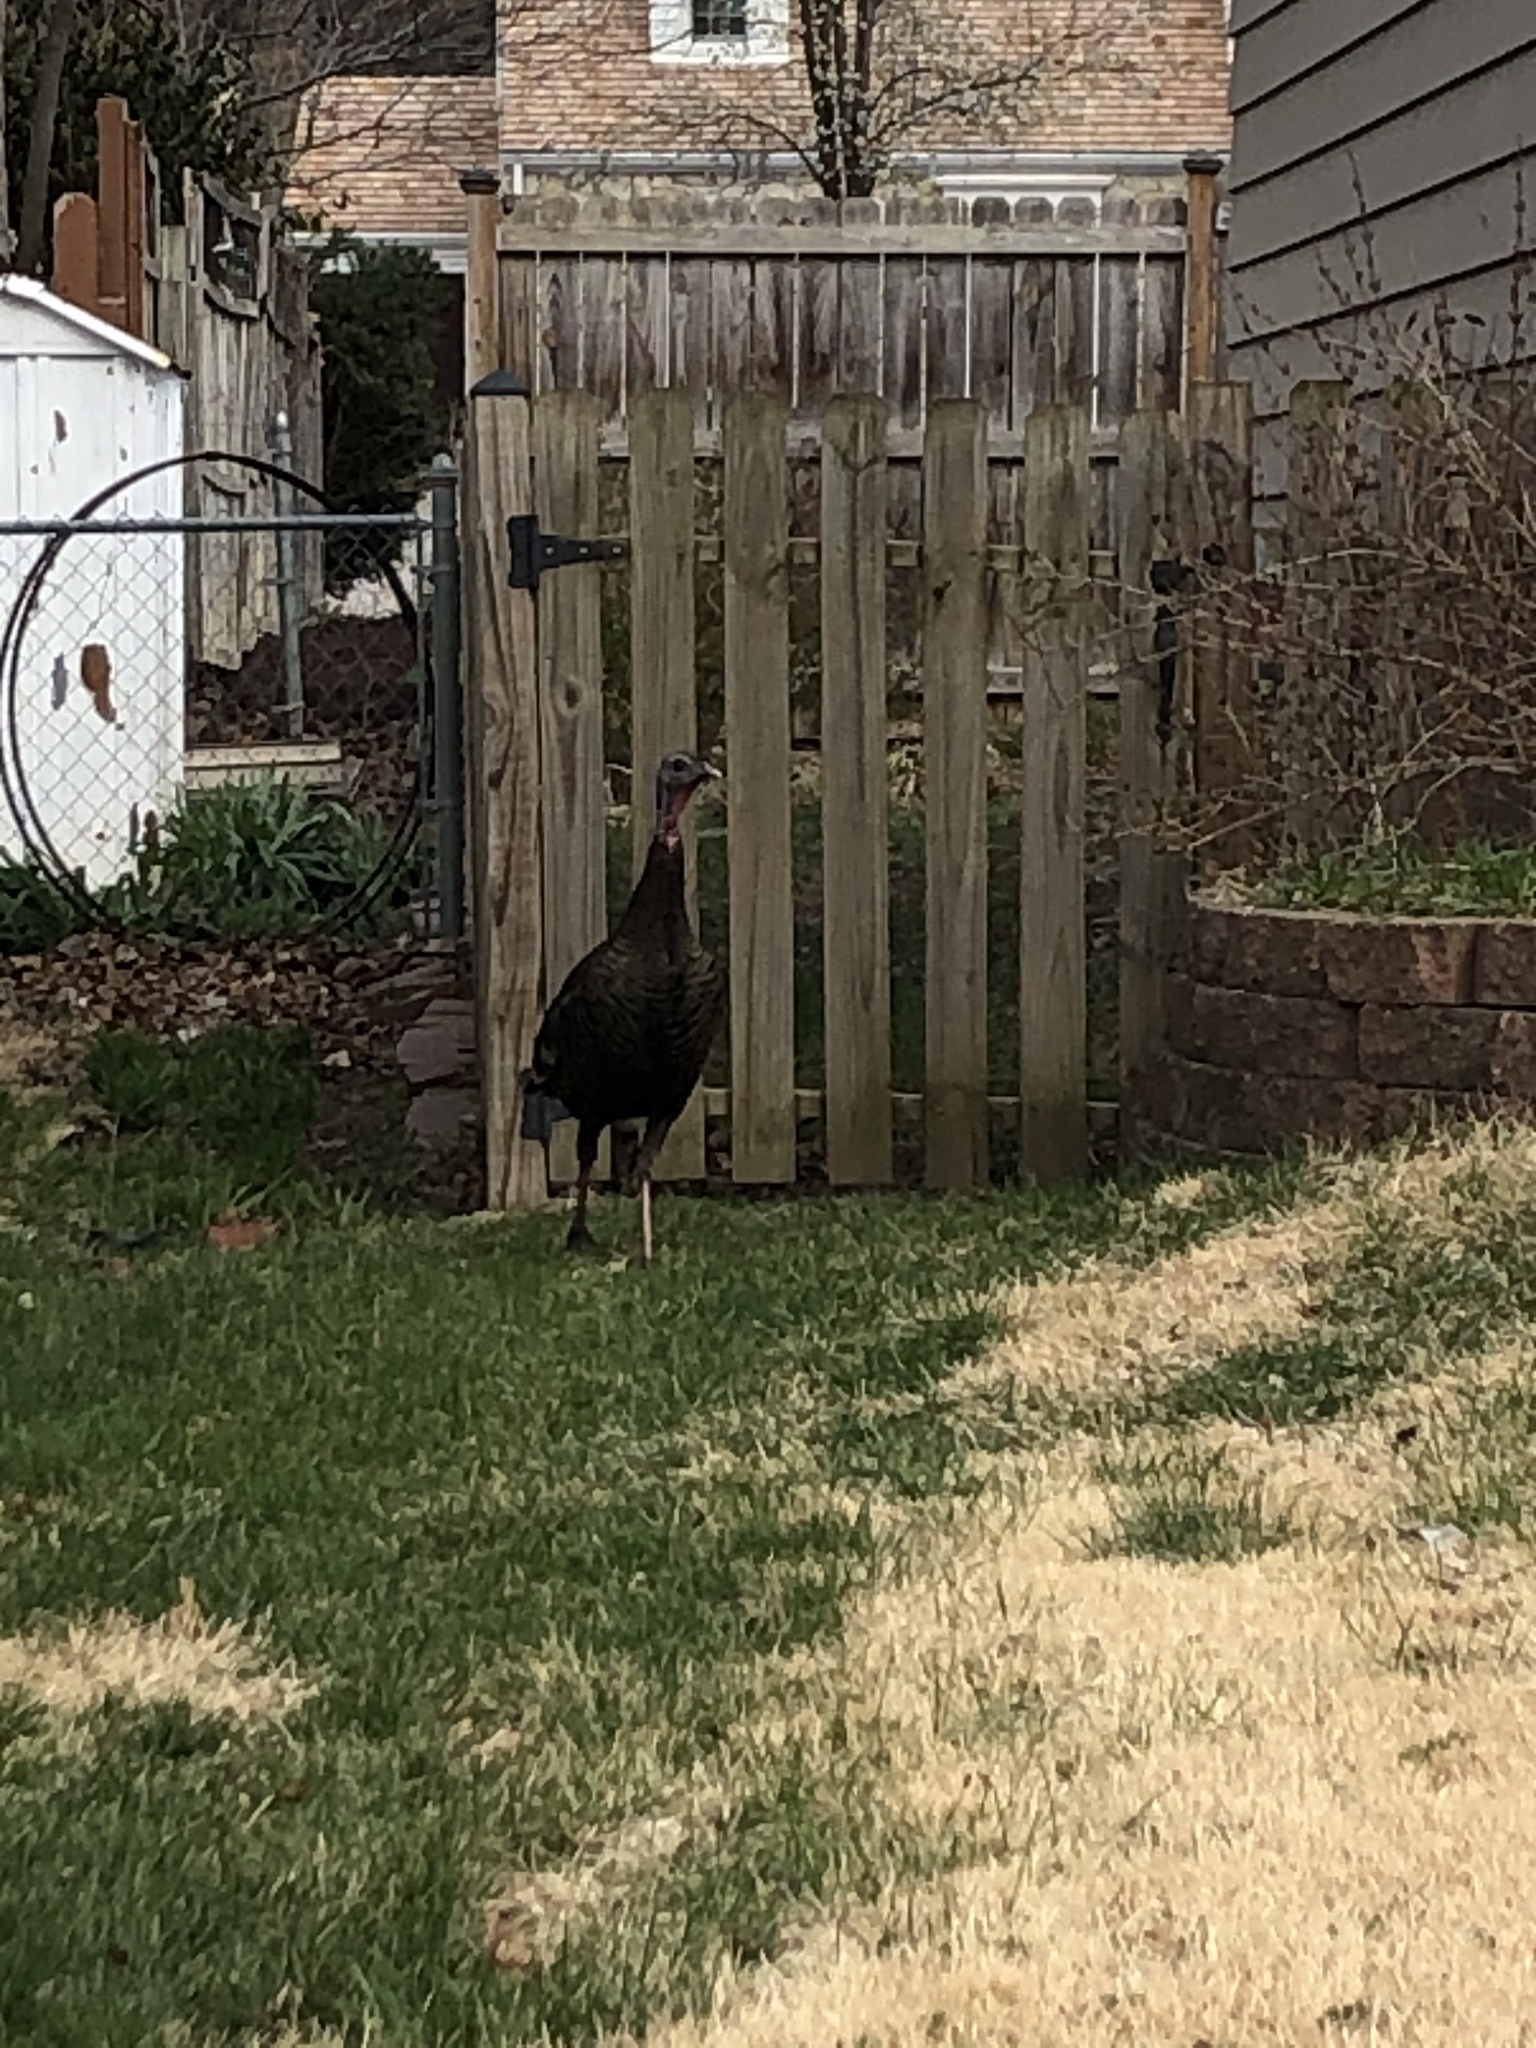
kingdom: Animalia
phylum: Chordata
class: Aves
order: Galliformes
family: Phasianidae
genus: Meleagris
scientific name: Meleagris gallopavo
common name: Wild turkey
